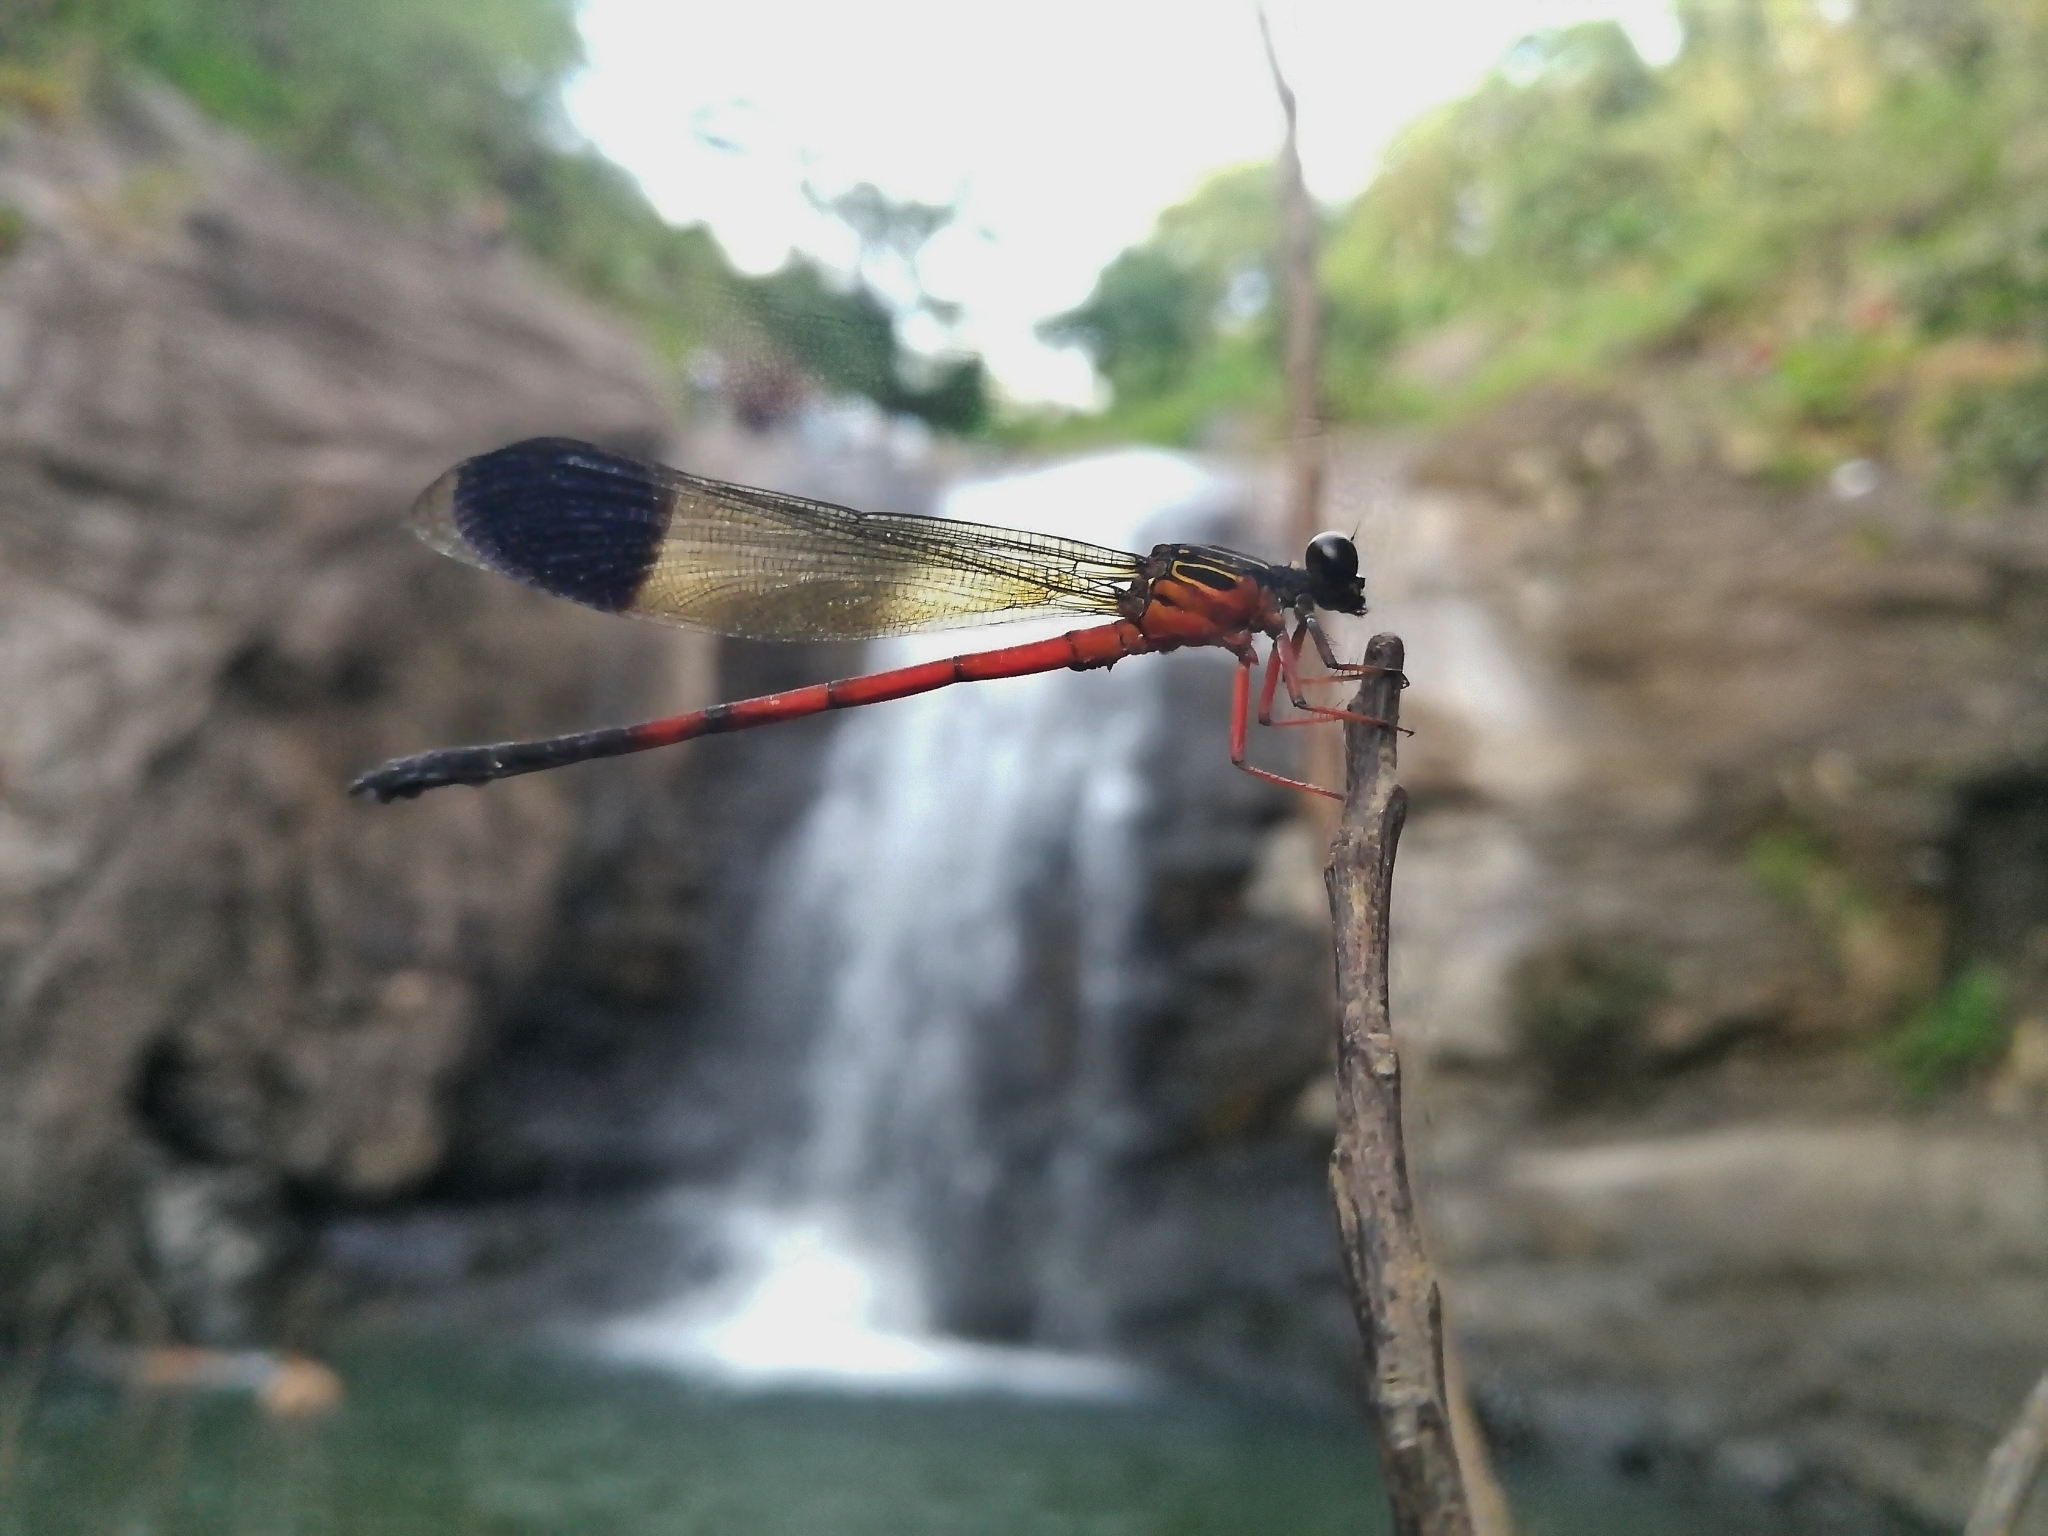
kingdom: Animalia
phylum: Arthropoda
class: Insecta
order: Odonata
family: Euphaeidae
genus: Euphaea
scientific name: Euphaea fraseri
